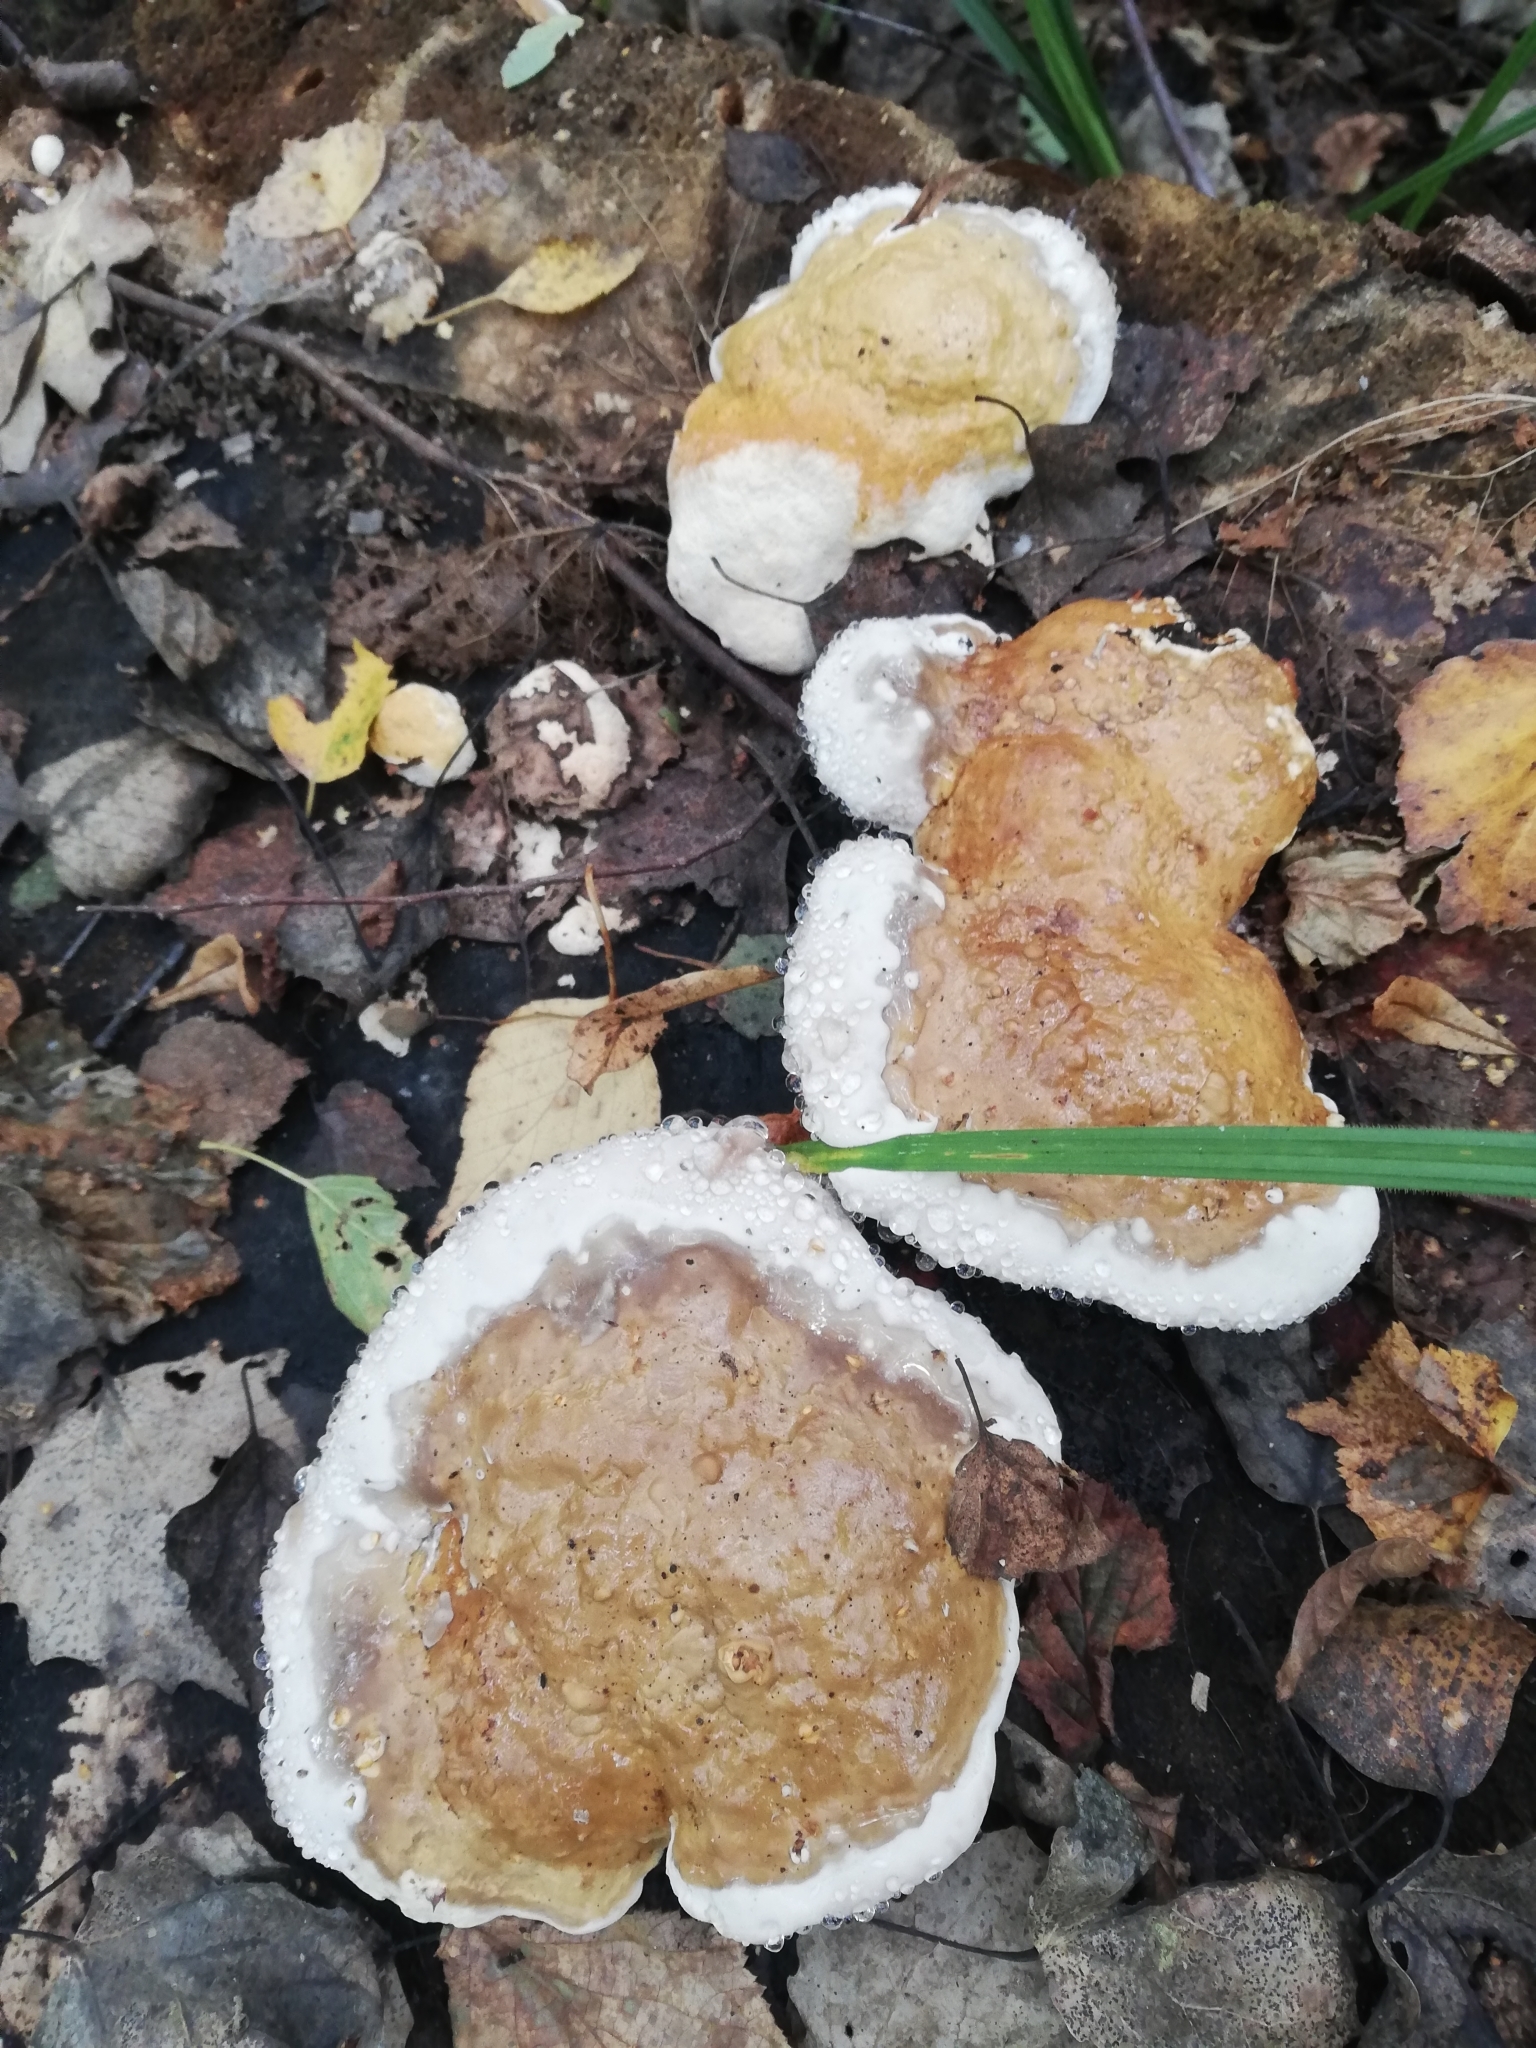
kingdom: Fungi
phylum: Basidiomycota
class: Agaricomycetes
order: Polyporales
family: Fomitopsidaceae
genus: Fomitopsis
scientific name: Fomitopsis pinicola
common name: Red-belted bracket
